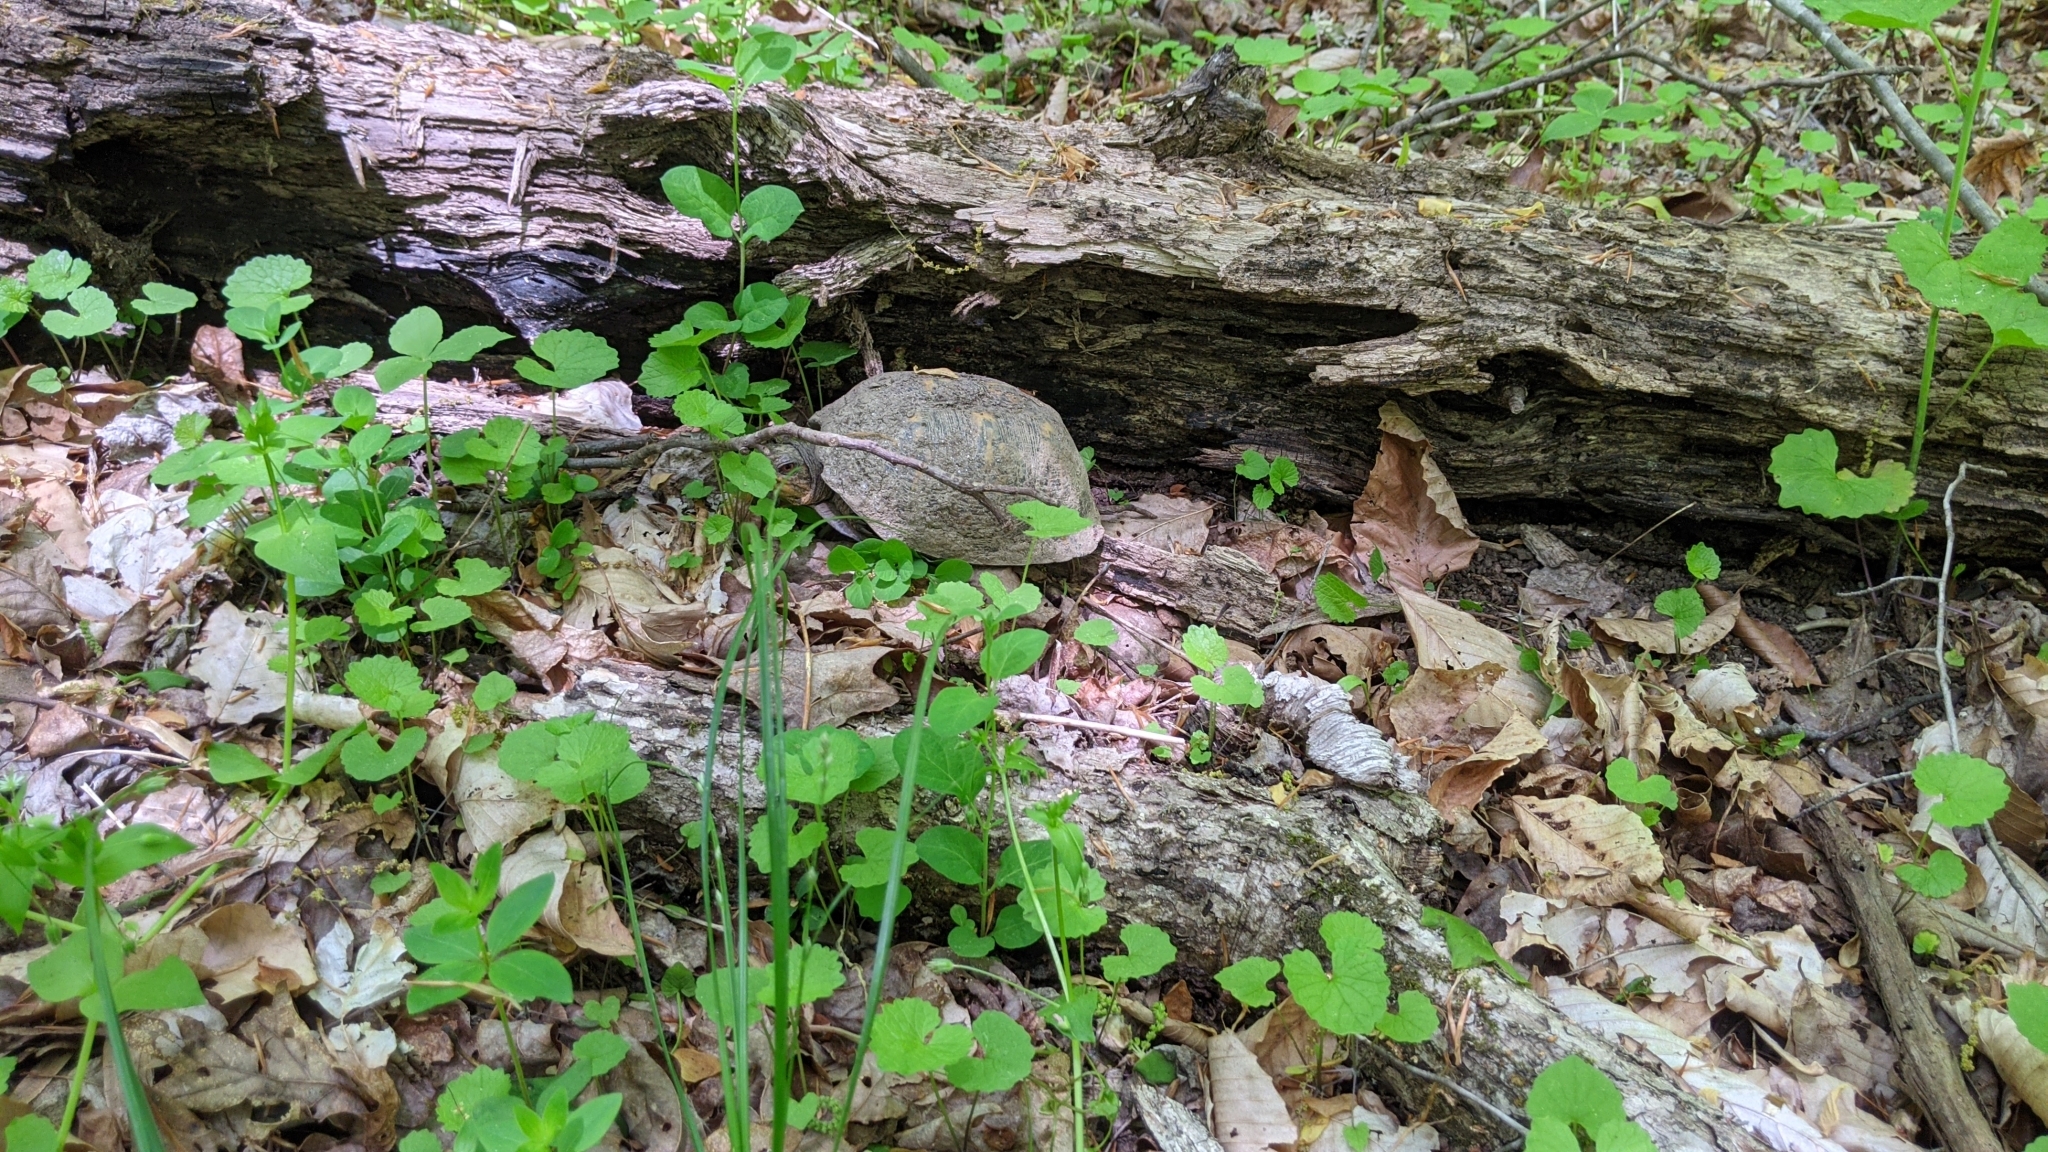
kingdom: Animalia
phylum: Chordata
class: Testudines
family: Emydidae
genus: Terrapene
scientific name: Terrapene carolina
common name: Common box turtle
